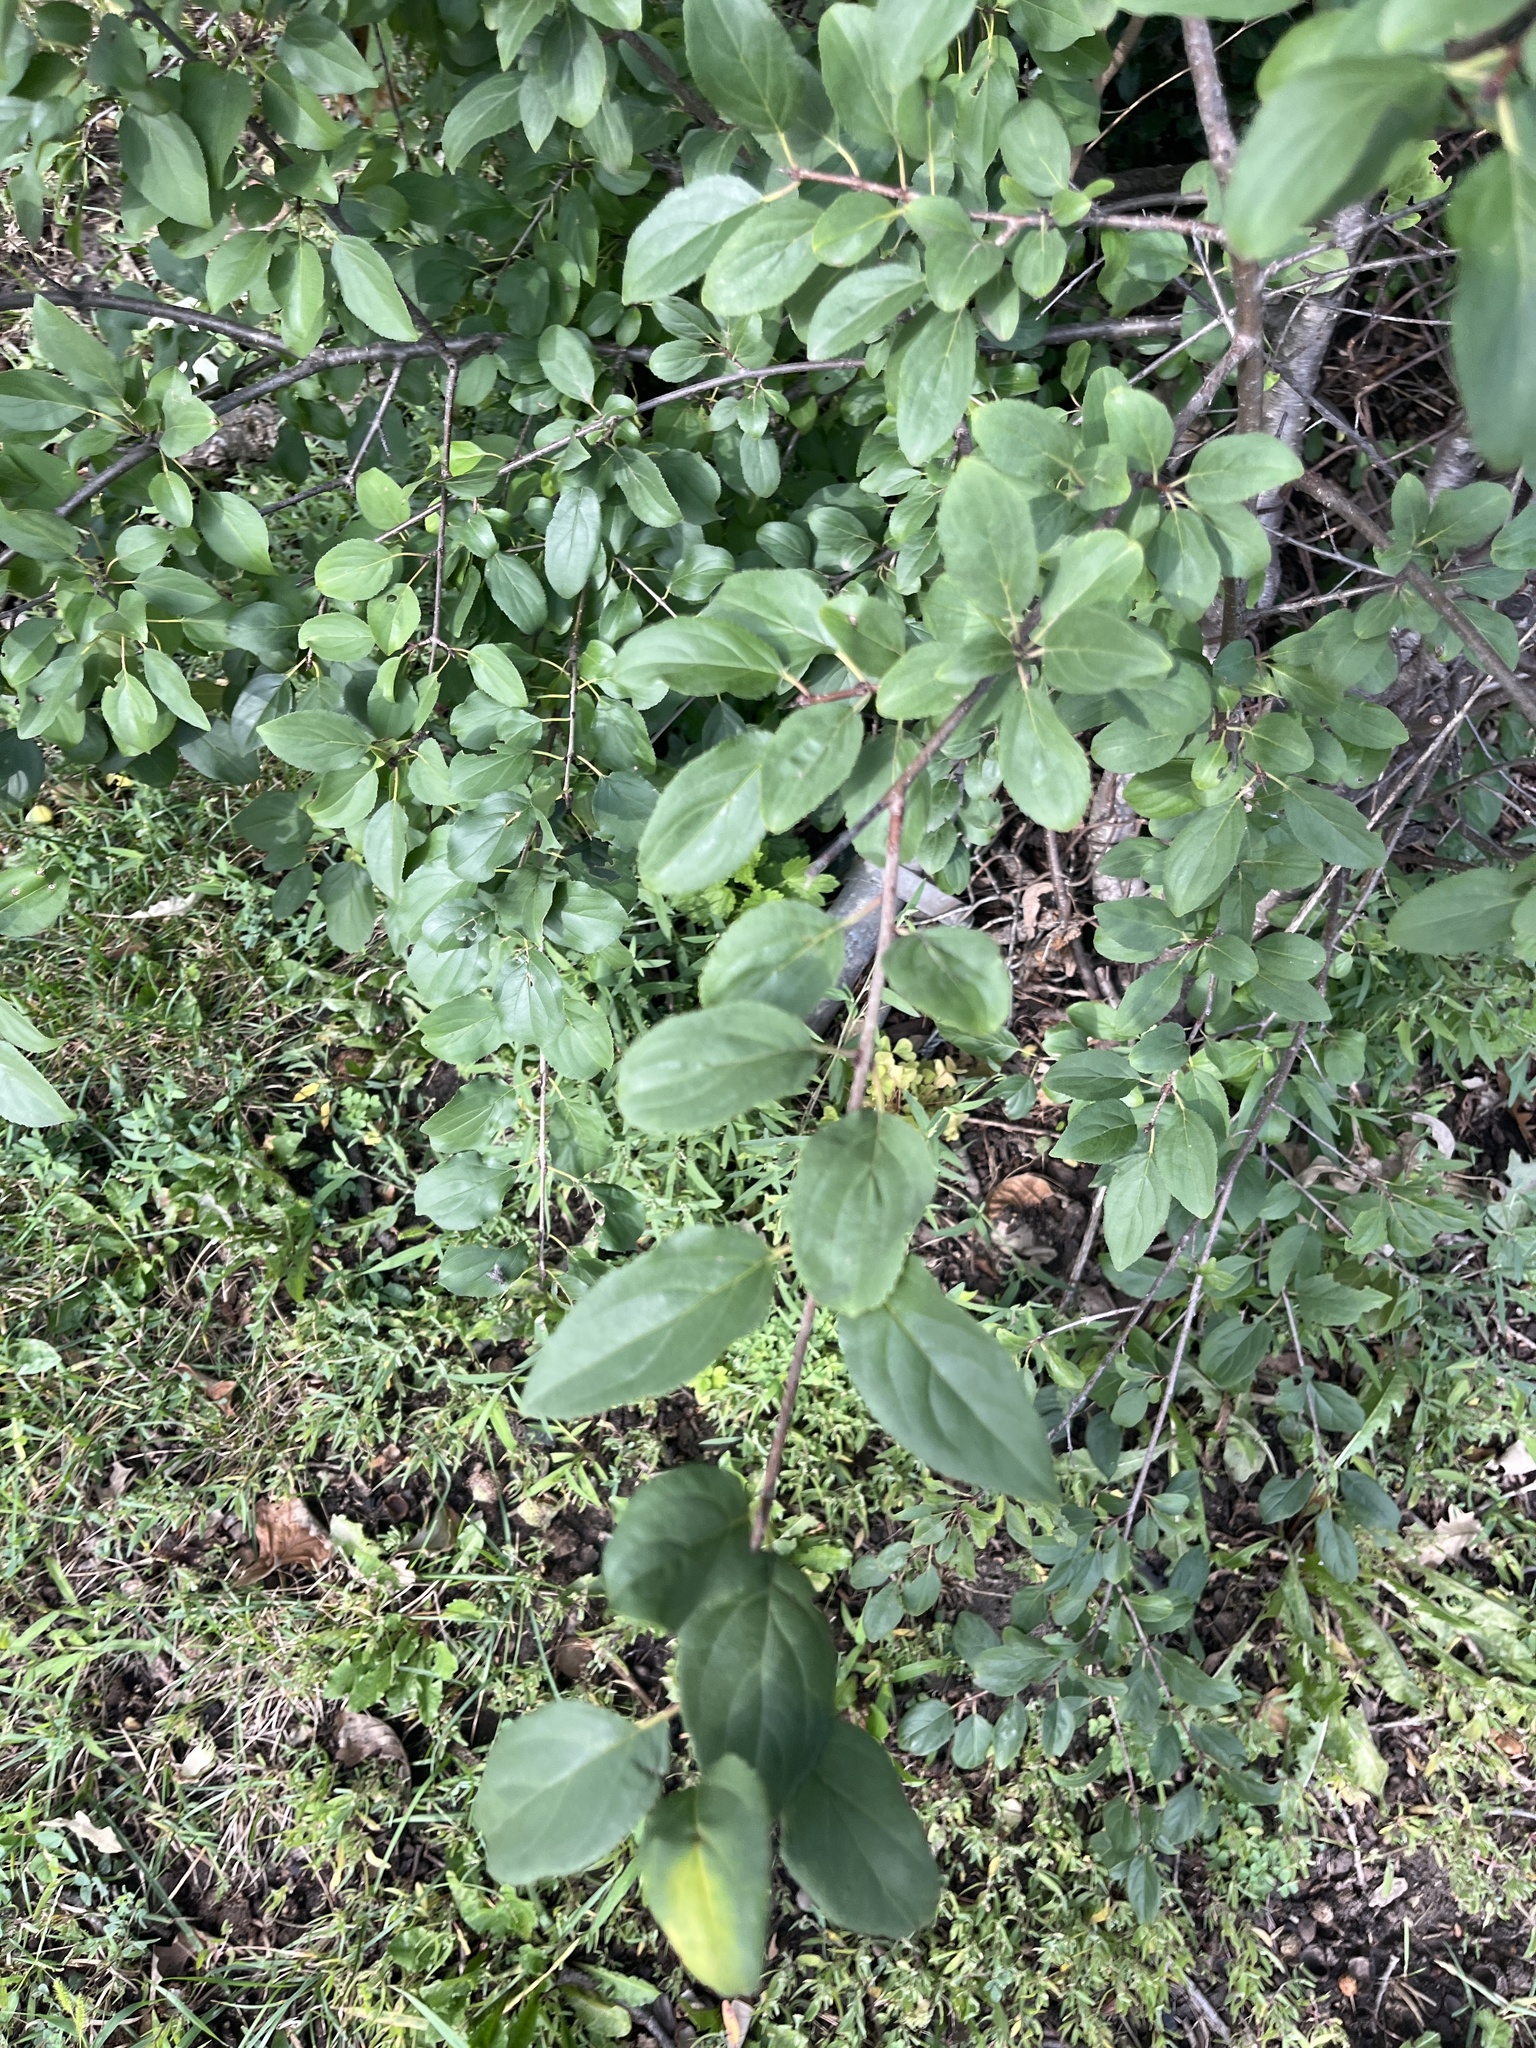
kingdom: Plantae
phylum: Tracheophyta
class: Magnoliopsida
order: Rosales
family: Rhamnaceae
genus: Rhamnus
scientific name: Rhamnus cathartica
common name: Common buckthorn
